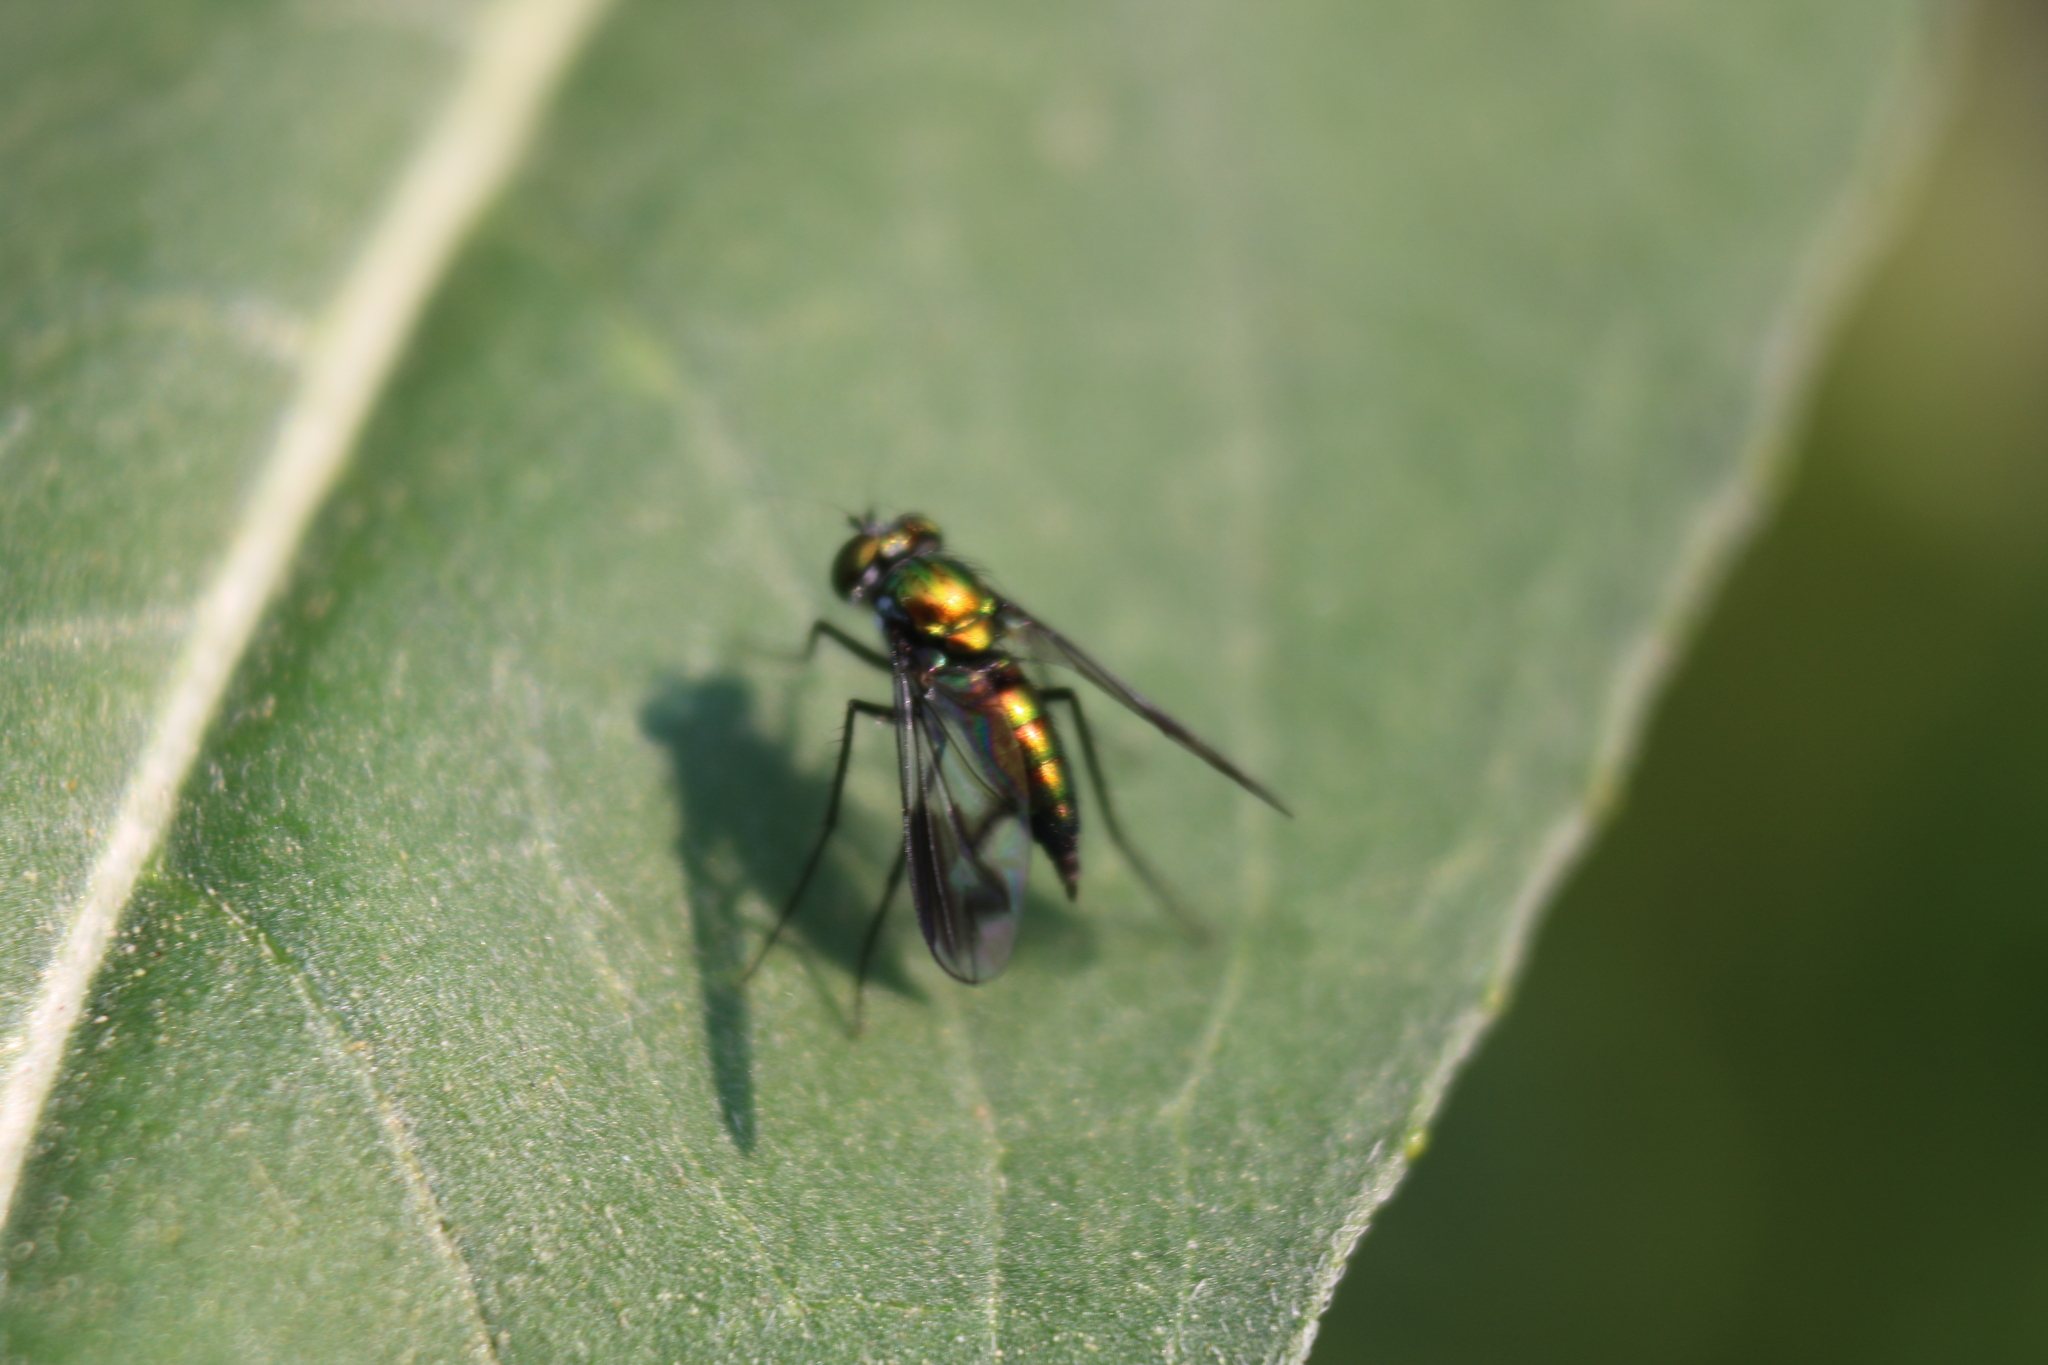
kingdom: Animalia
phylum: Arthropoda
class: Insecta
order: Diptera
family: Dolichopodidae
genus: Condylostylus
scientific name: Condylostylus patibulatus
